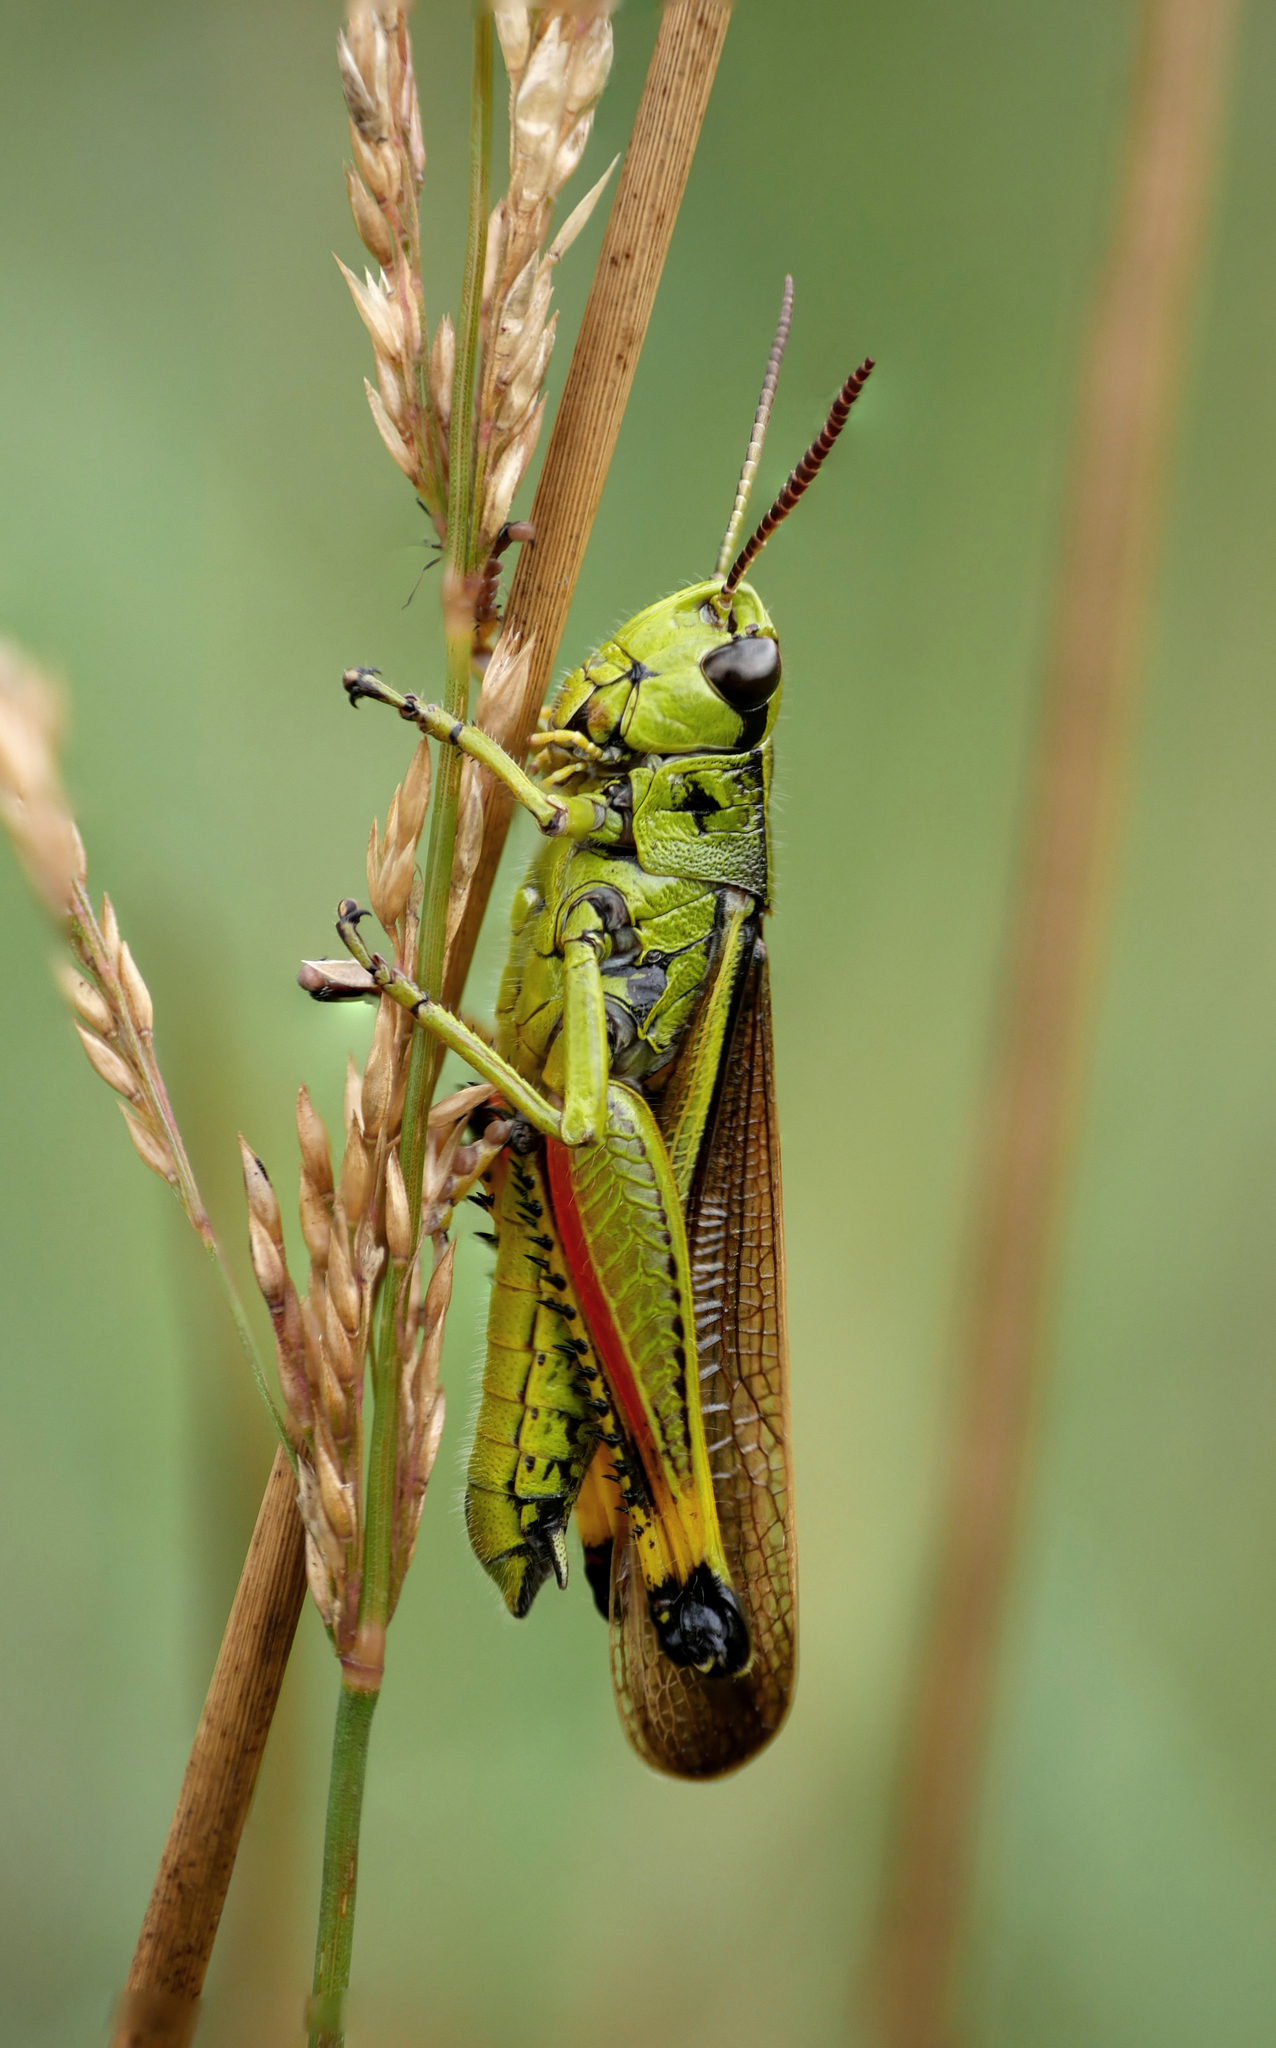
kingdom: Animalia
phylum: Arthropoda
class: Insecta
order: Orthoptera
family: Acrididae
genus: Stethophyma
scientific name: Stethophyma grossum
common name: Large marsh grasshopper
